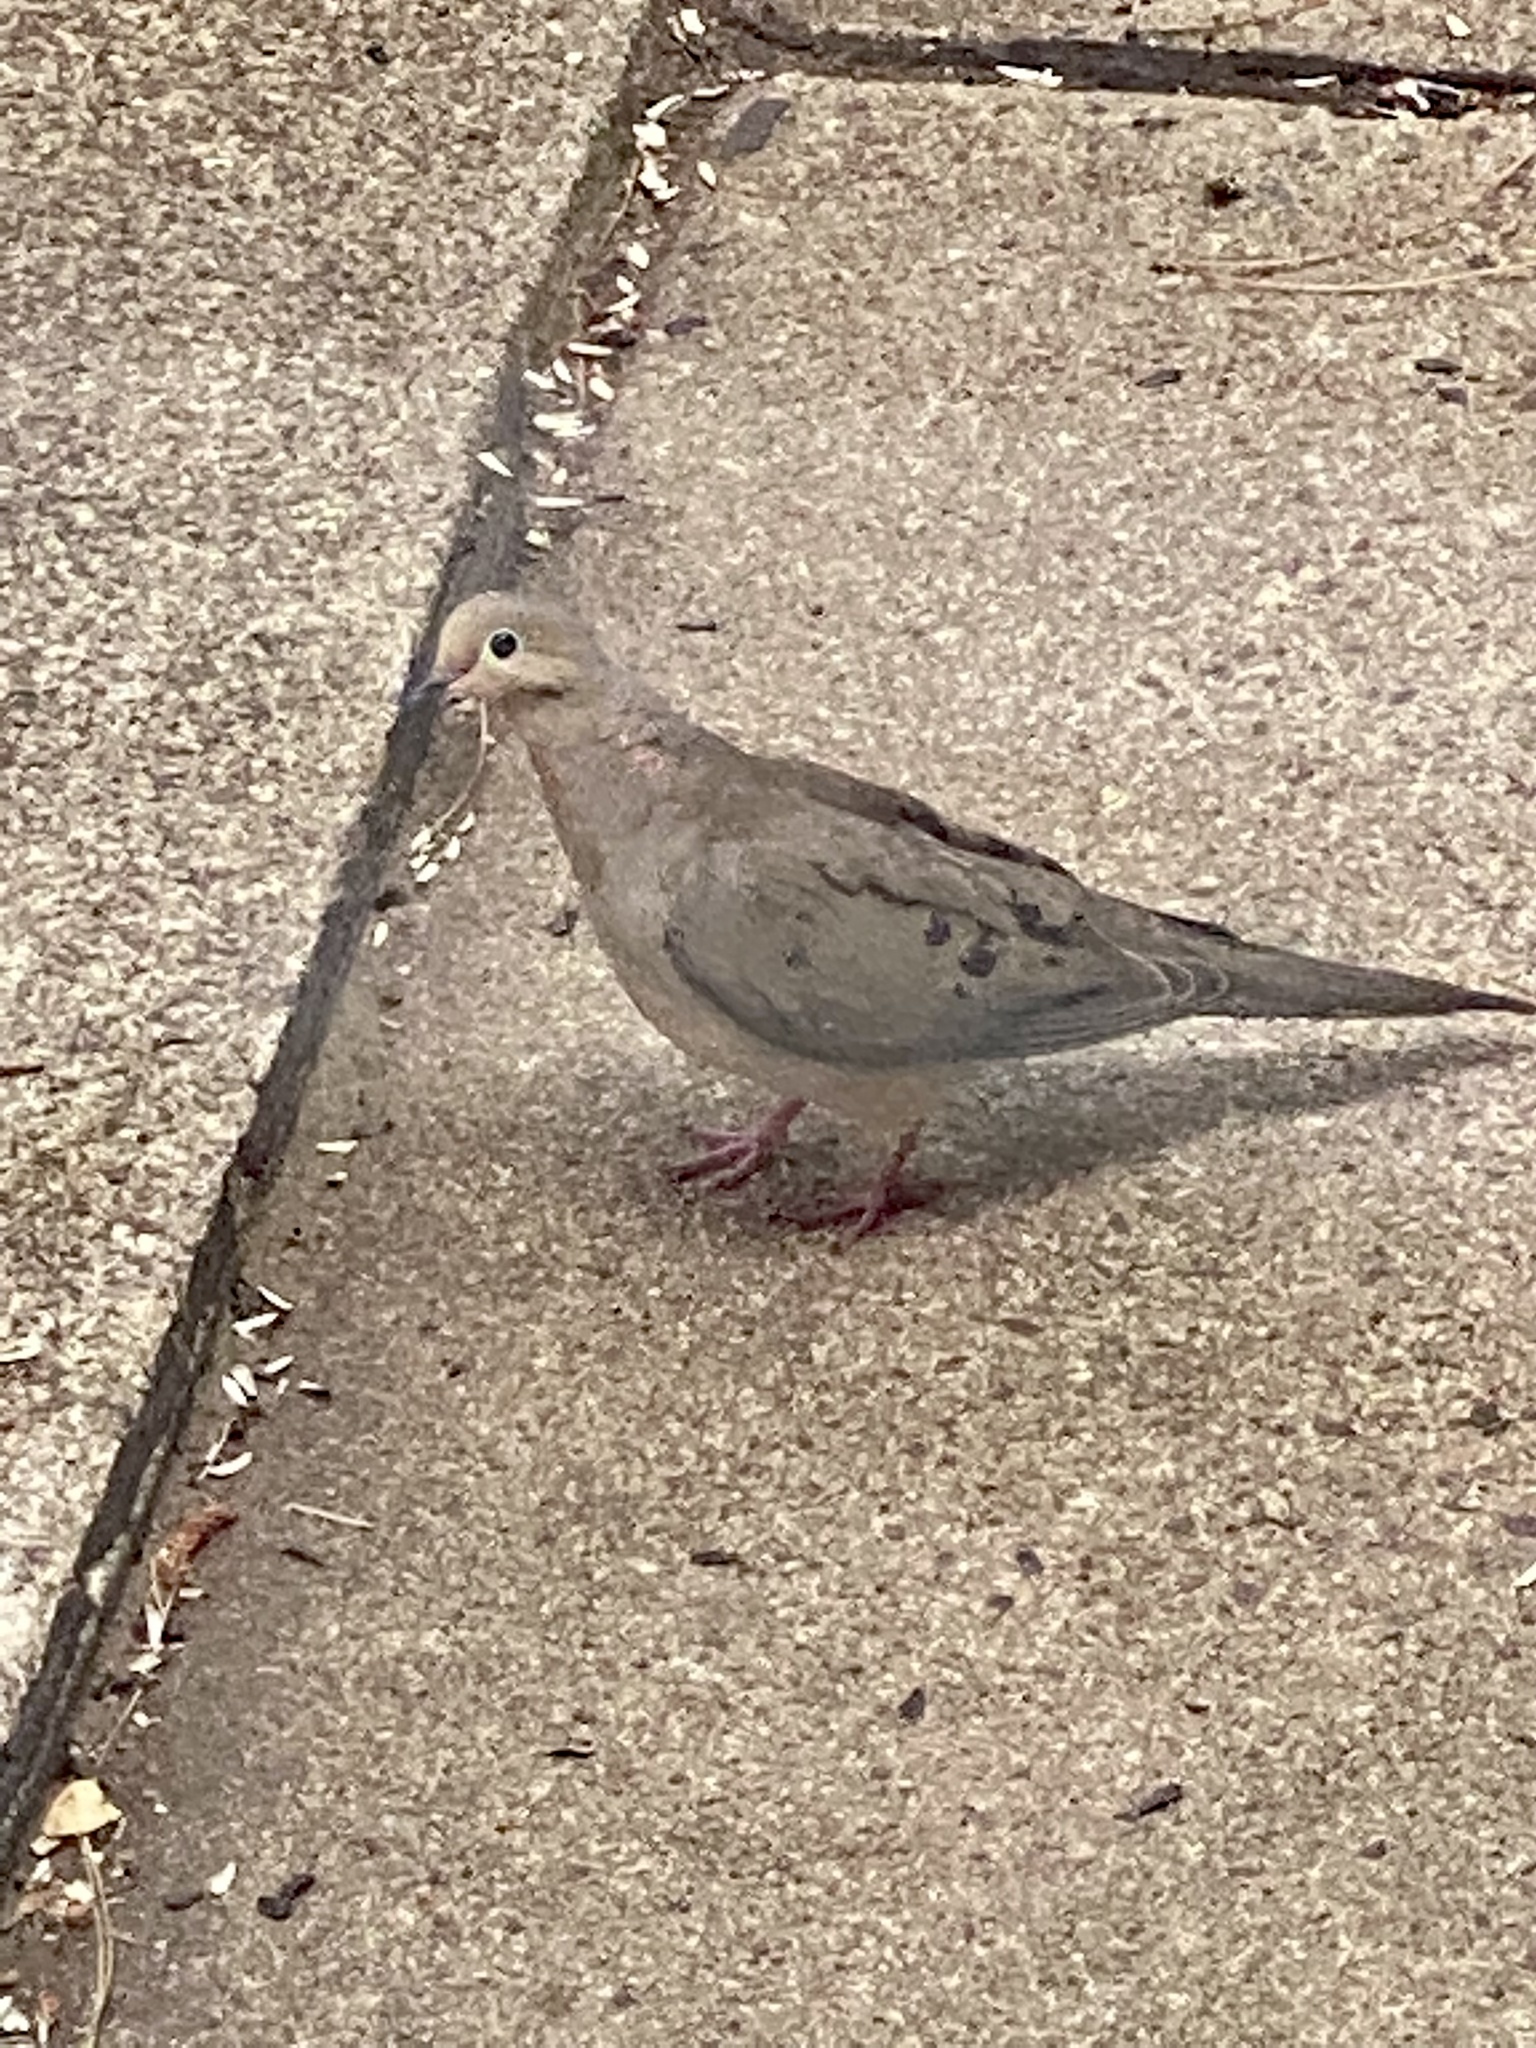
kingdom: Animalia
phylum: Chordata
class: Aves
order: Columbiformes
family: Columbidae
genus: Zenaida
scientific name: Zenaida macroura
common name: Mourning dove
